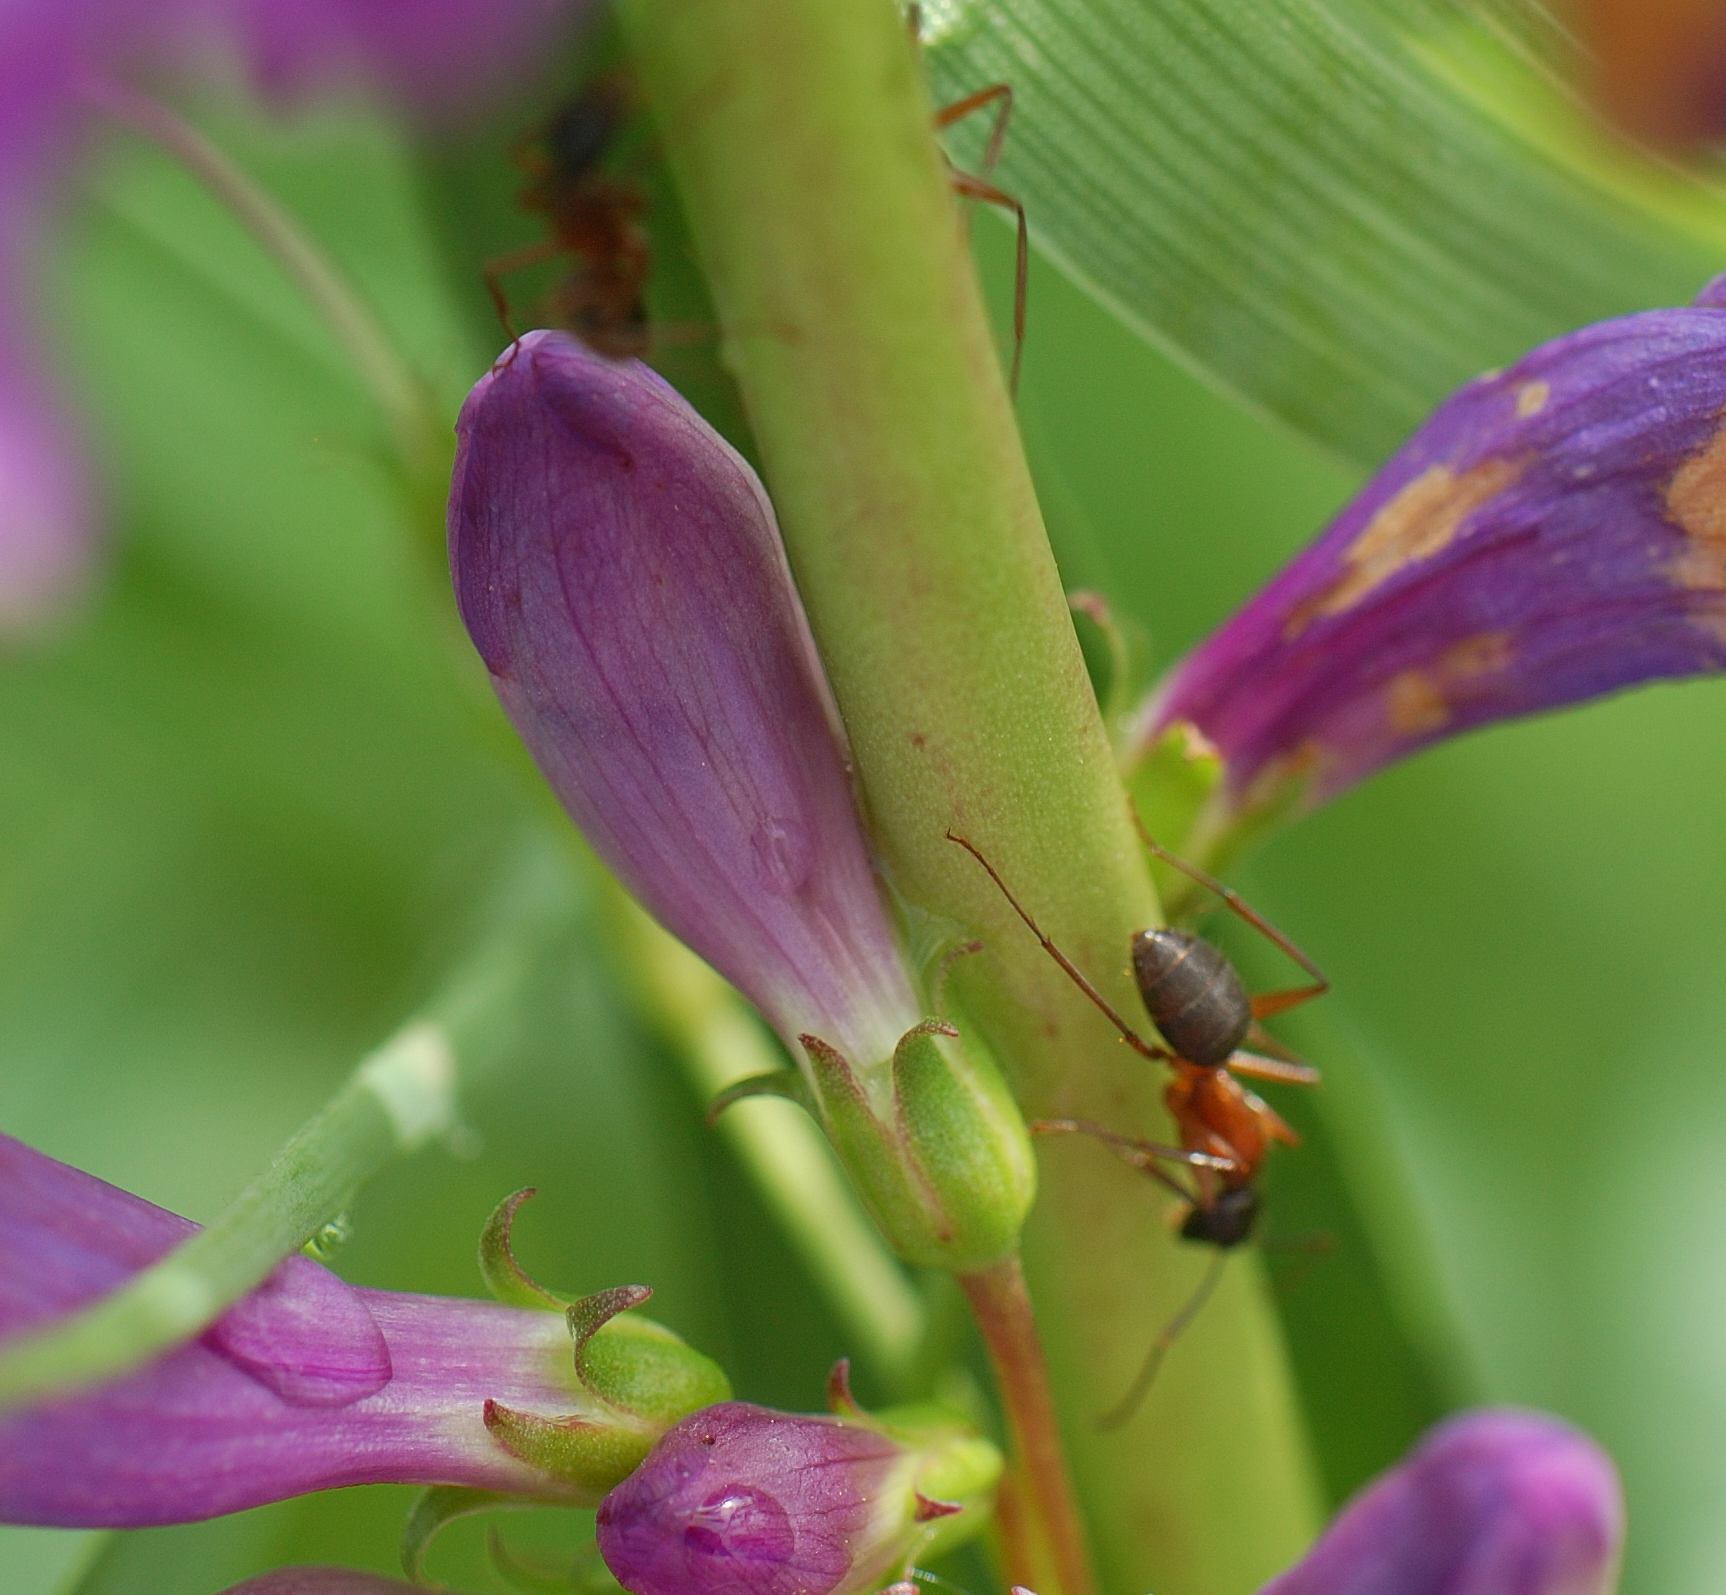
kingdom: Animalia
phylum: Arthropoda
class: Insecta
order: Hymenoptera
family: Formicidae
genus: Camponotus
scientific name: Camponotus chromaiodes
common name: Red carpenter ant
